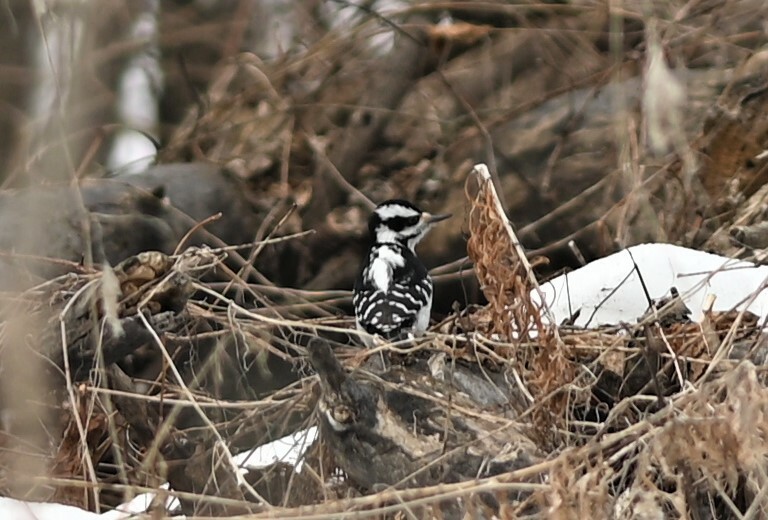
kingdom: Animalia
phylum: Chordata
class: Aves
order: Piciformes
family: Picidae
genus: Leuconotopicus
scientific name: Leuconotopicus villosus
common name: Hairy woodpecker
